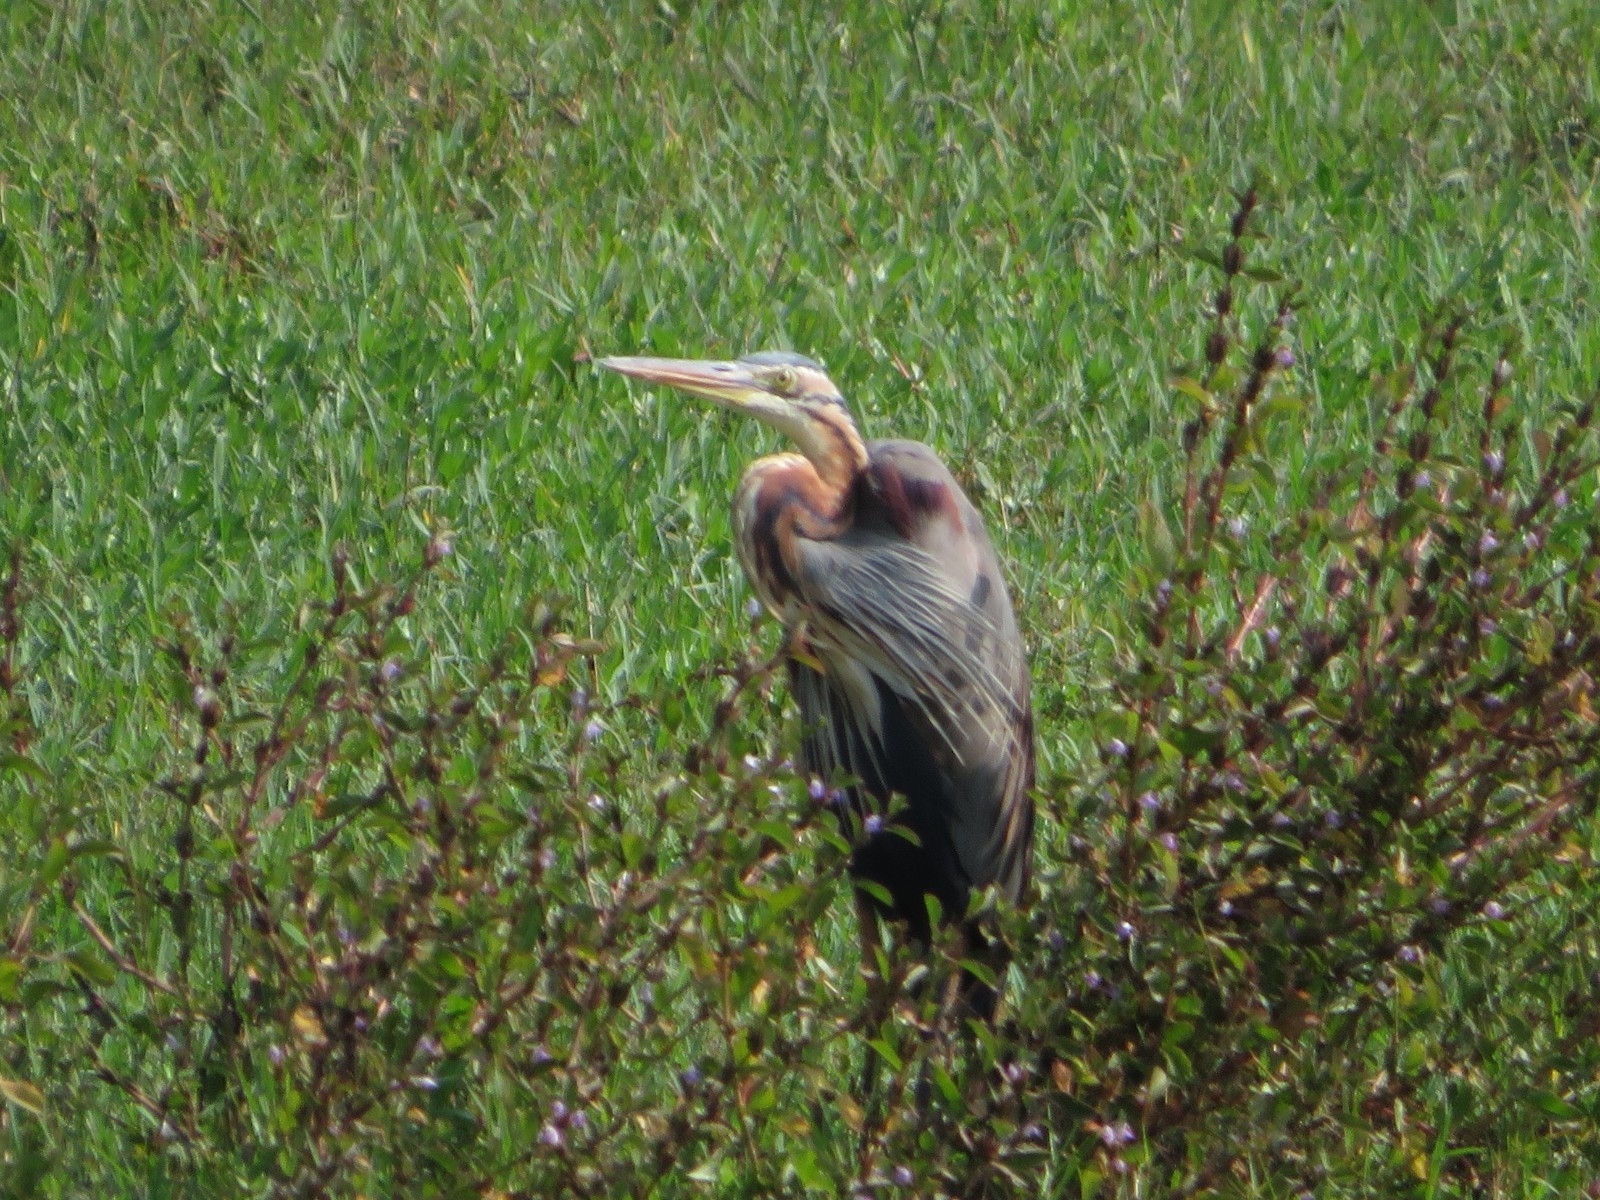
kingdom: Animalia
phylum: Chordata
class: Aves
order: Pelecaniformes
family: Ardeidae
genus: Ardea
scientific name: Ardea purpurea
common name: Purple heron
